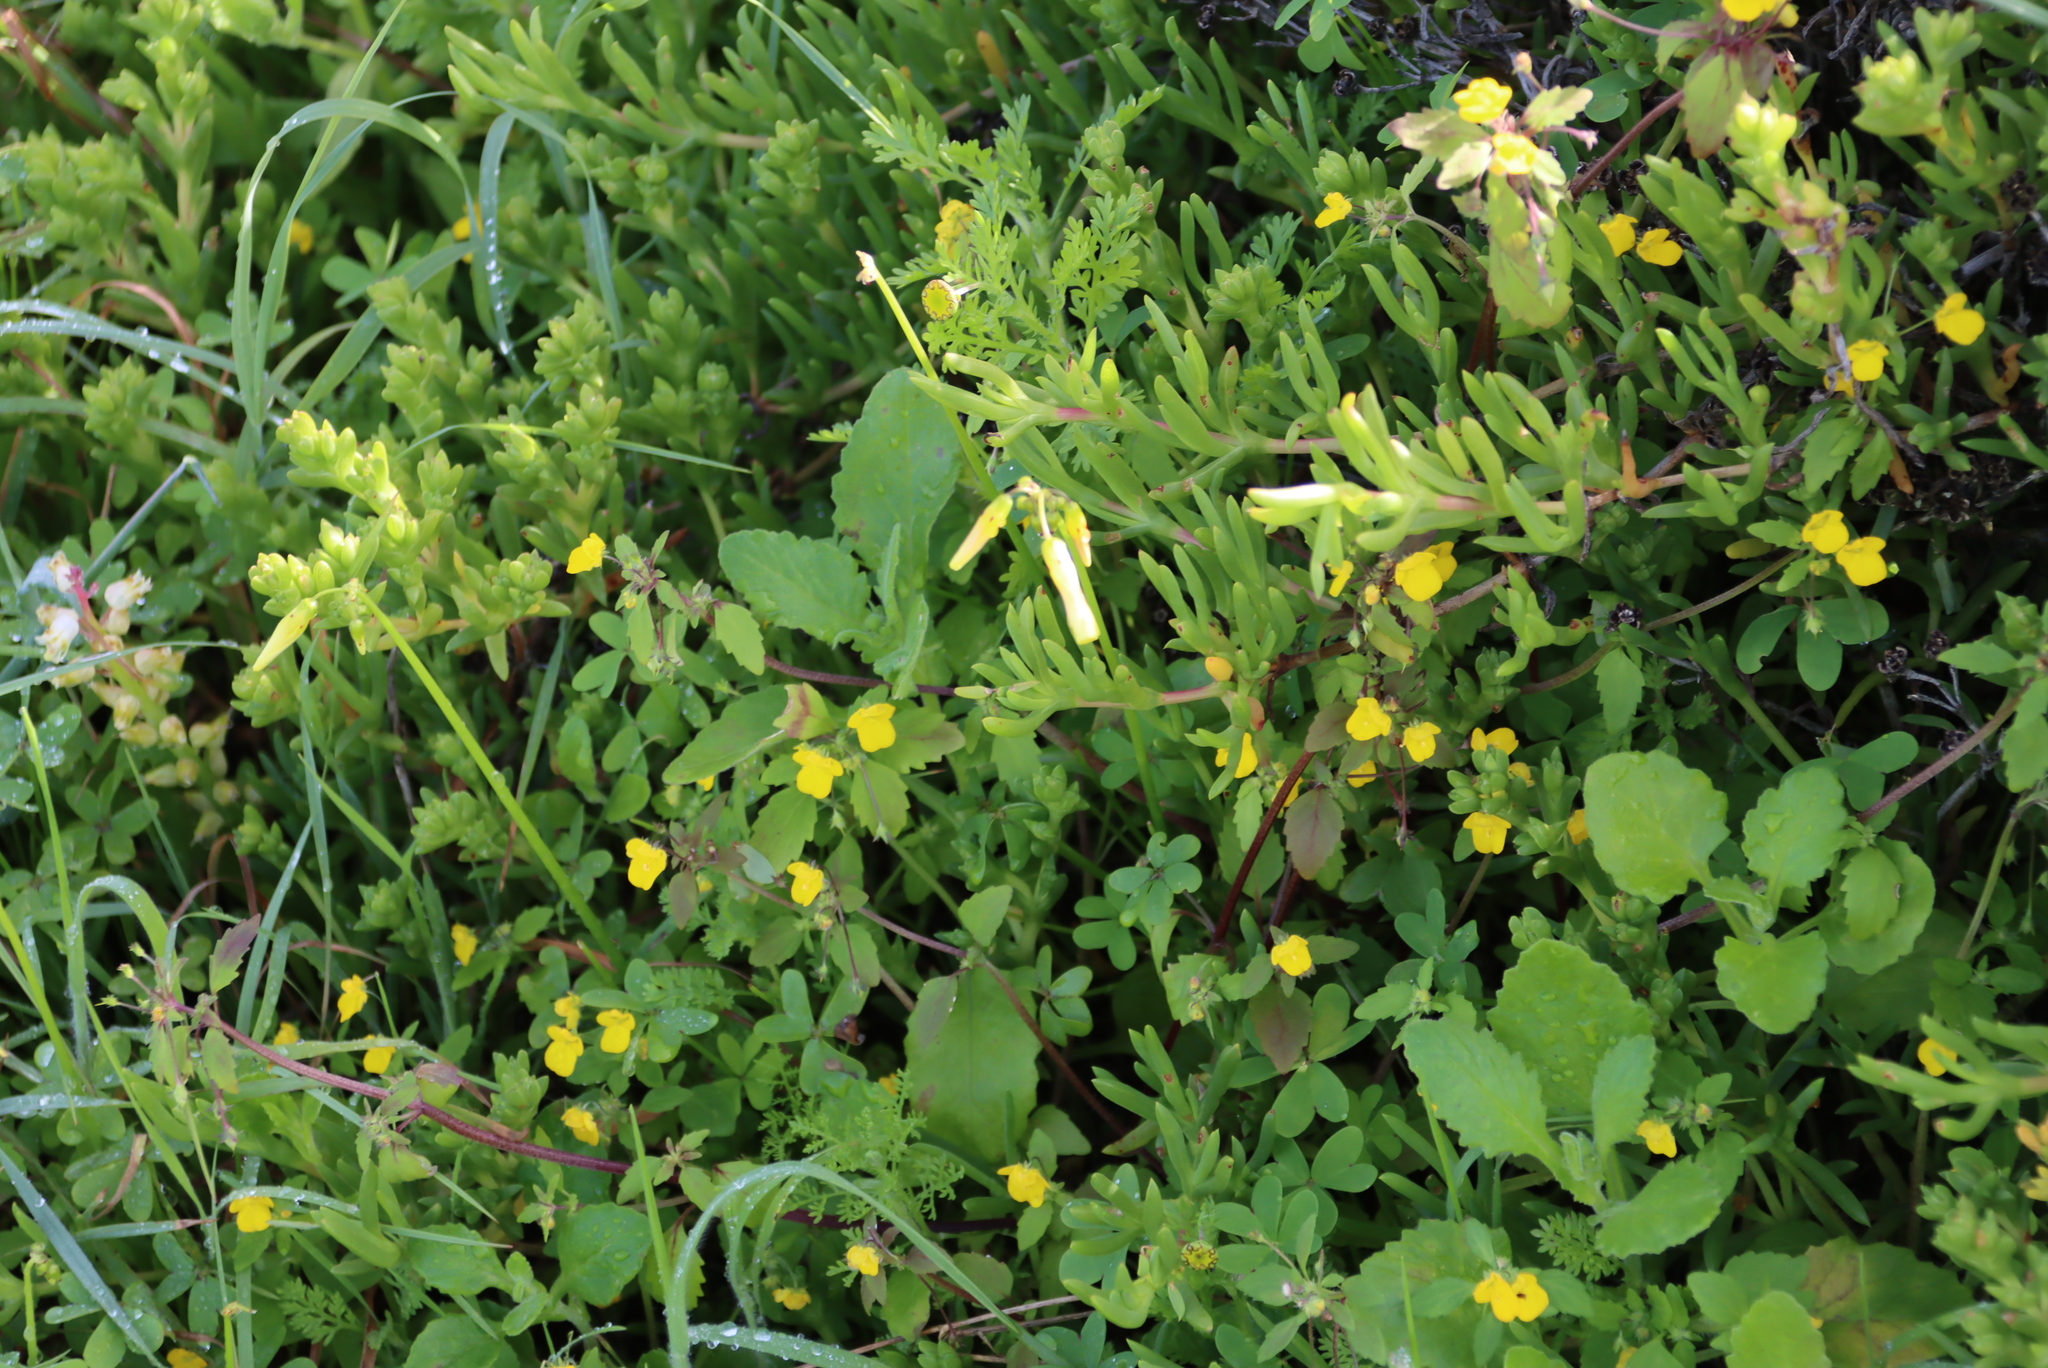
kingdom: Plantae
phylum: Tracheophyta
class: Magnoliopsida
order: Oxalidales
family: Oxalidaceae
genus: Oxalis
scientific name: Oxalis pes-caprae
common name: Bermuda-buttercup
